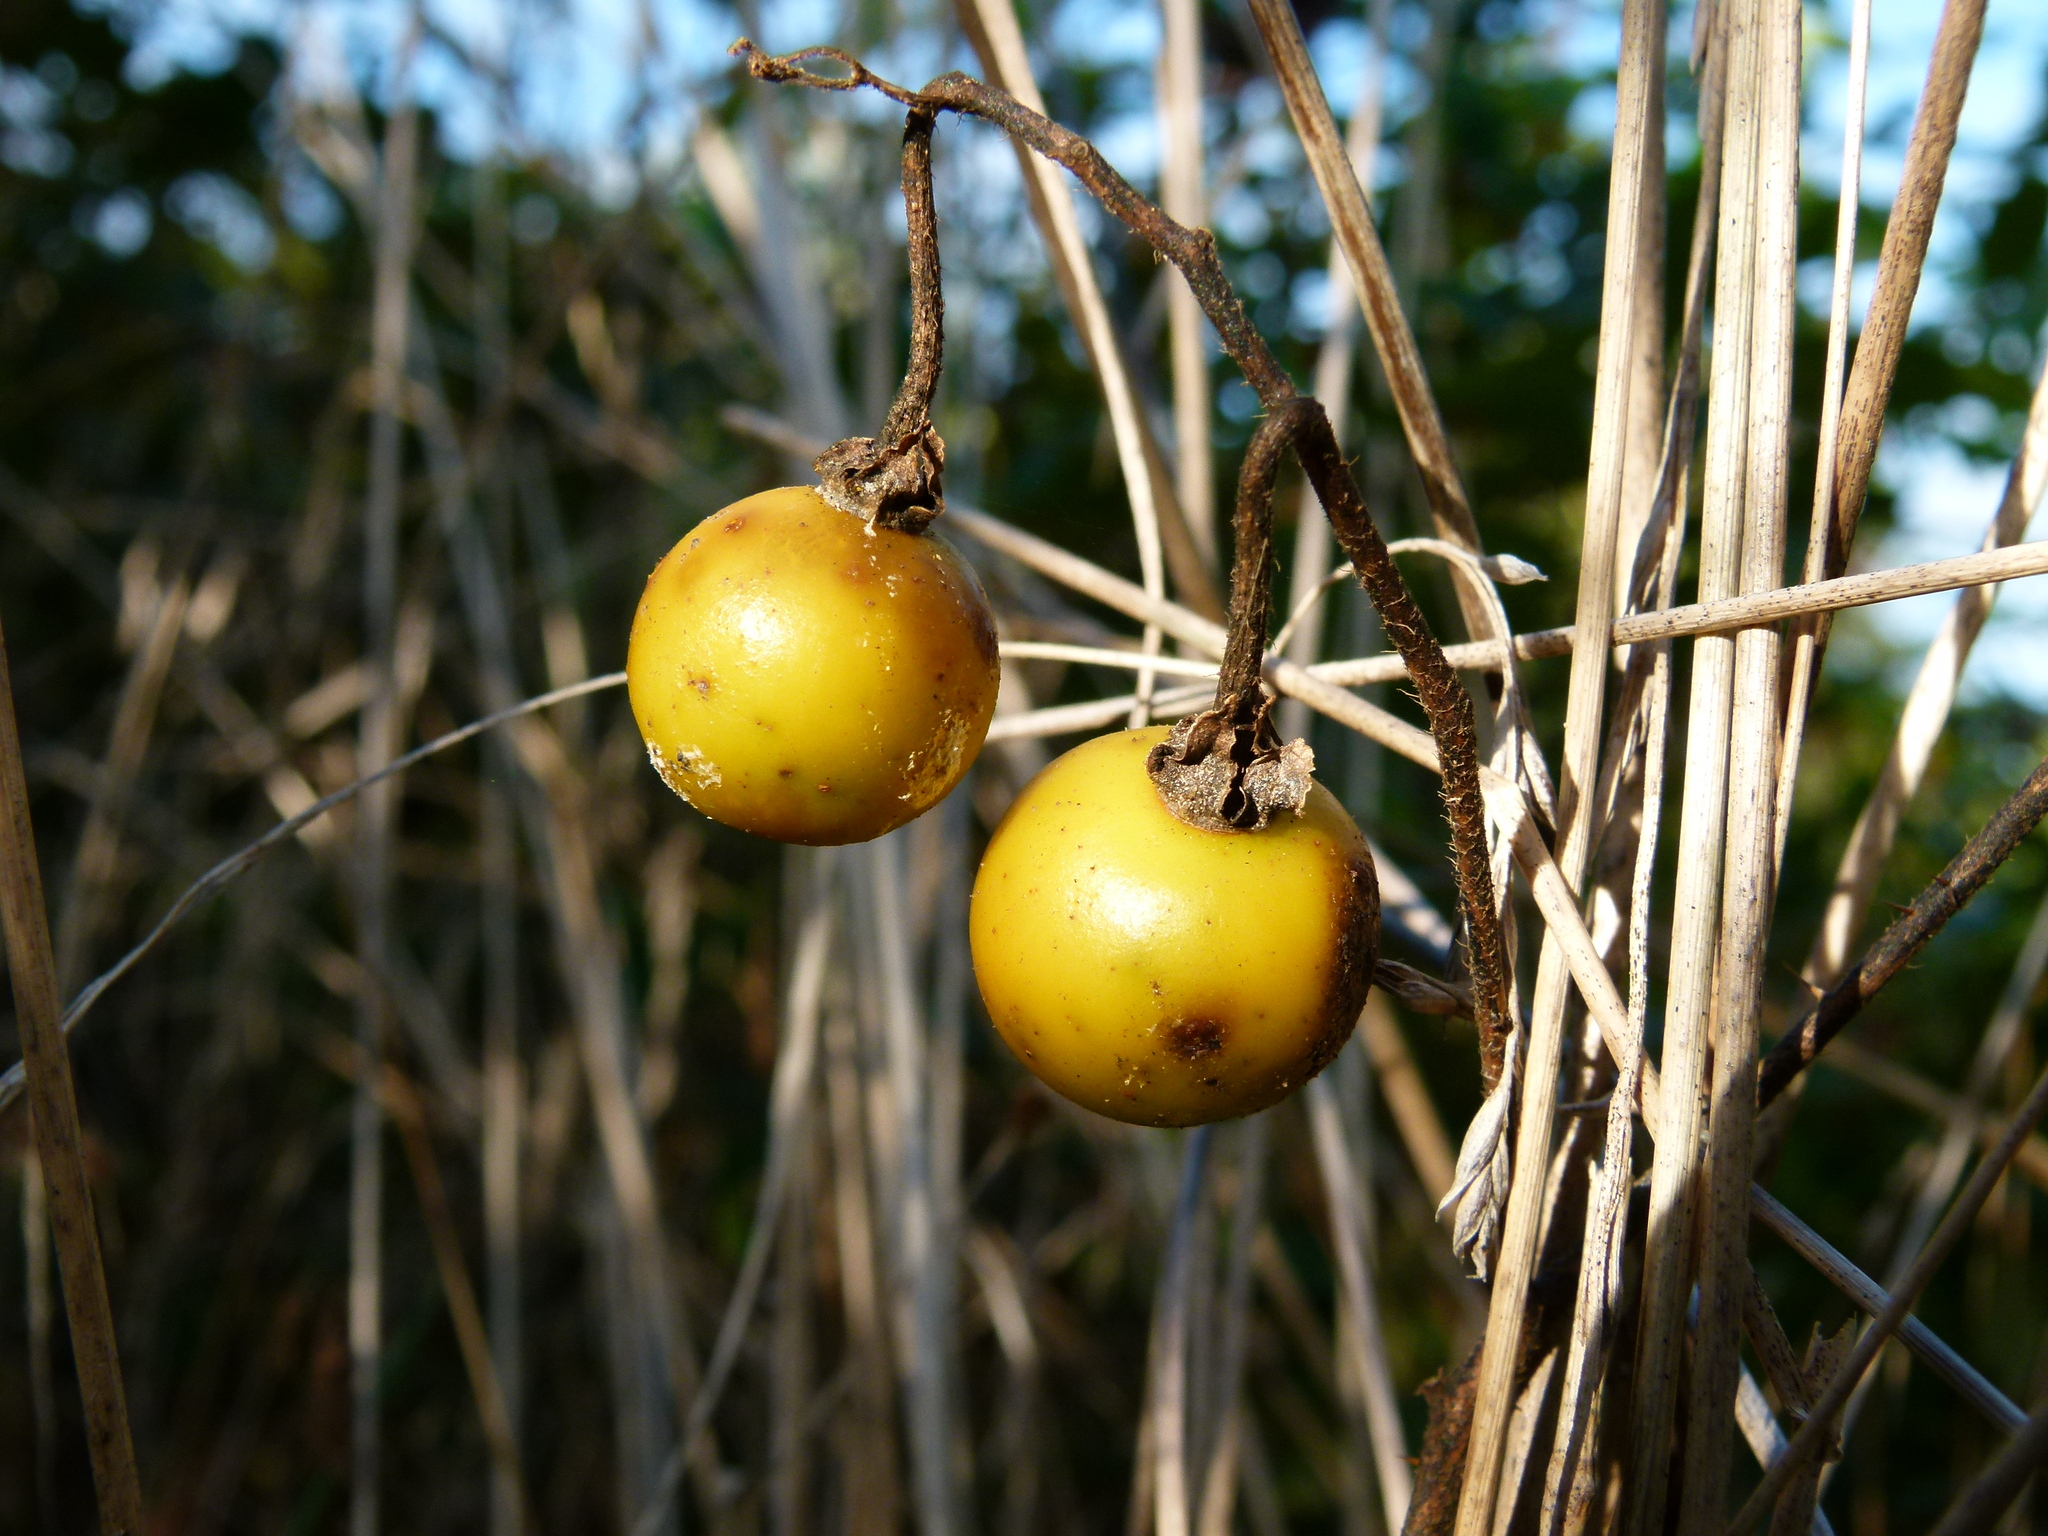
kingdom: Plantae
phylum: Tracheophyta
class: Magnoliopsida
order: Solanales
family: Solanaceae
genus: Solanum
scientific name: Solanum carolinense
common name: Horse-nettle
